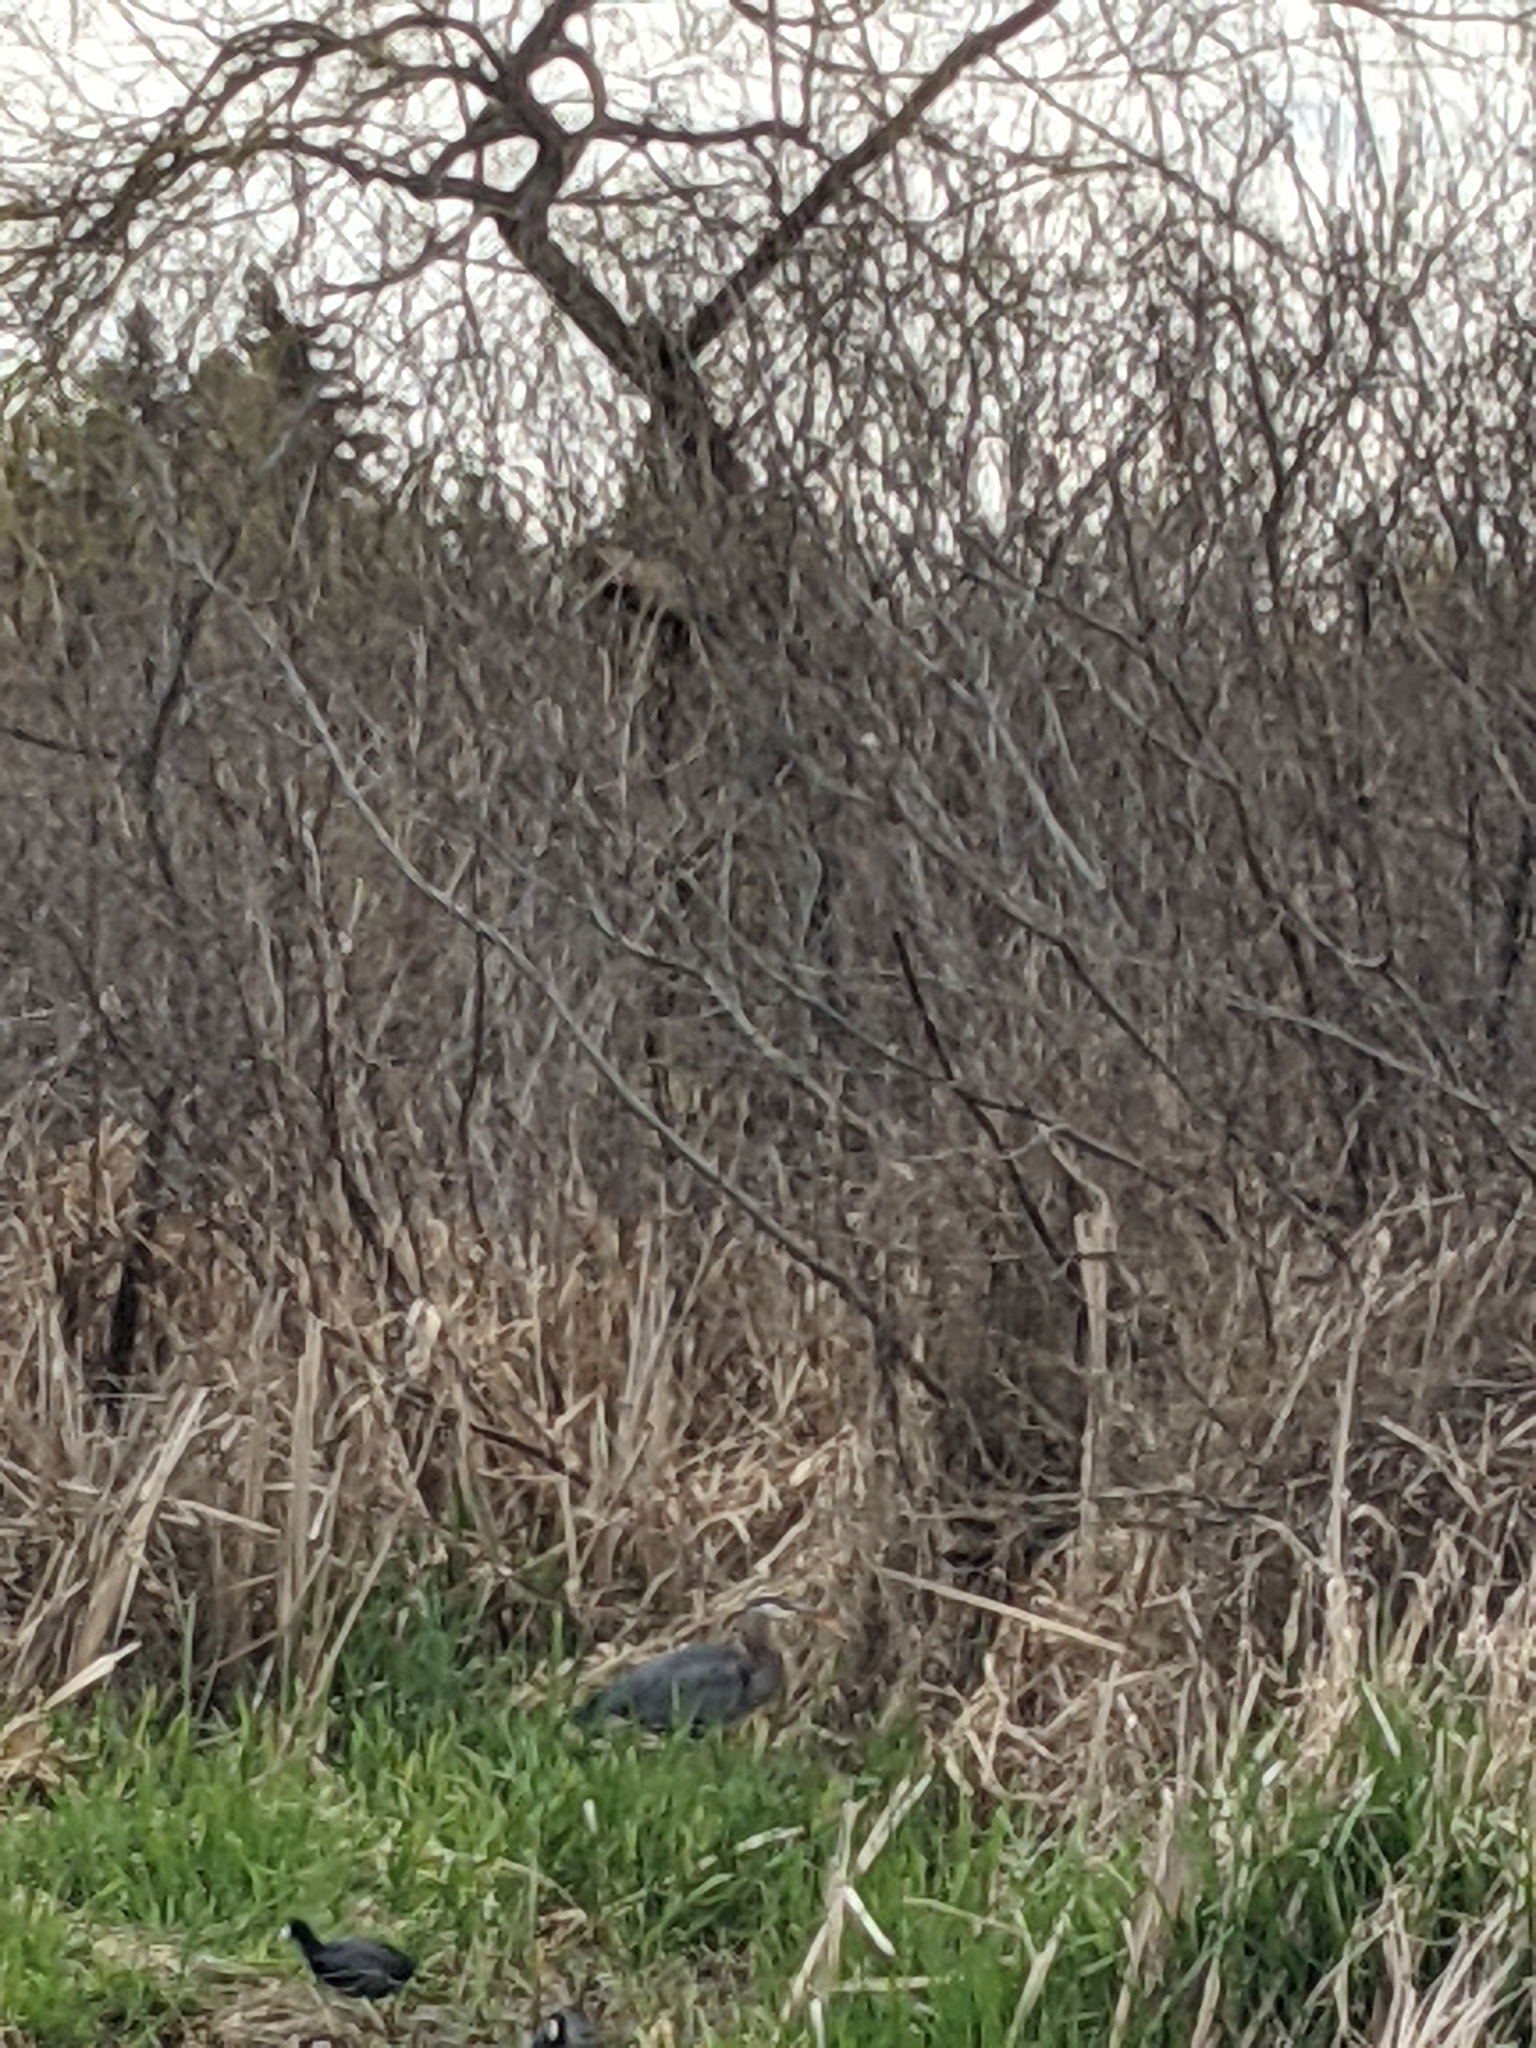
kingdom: Animalia
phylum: Chordata
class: Aves
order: Pelecaniformes
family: Ardeidae
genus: Ardea
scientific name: Ardea herodias
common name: Great blue heron
